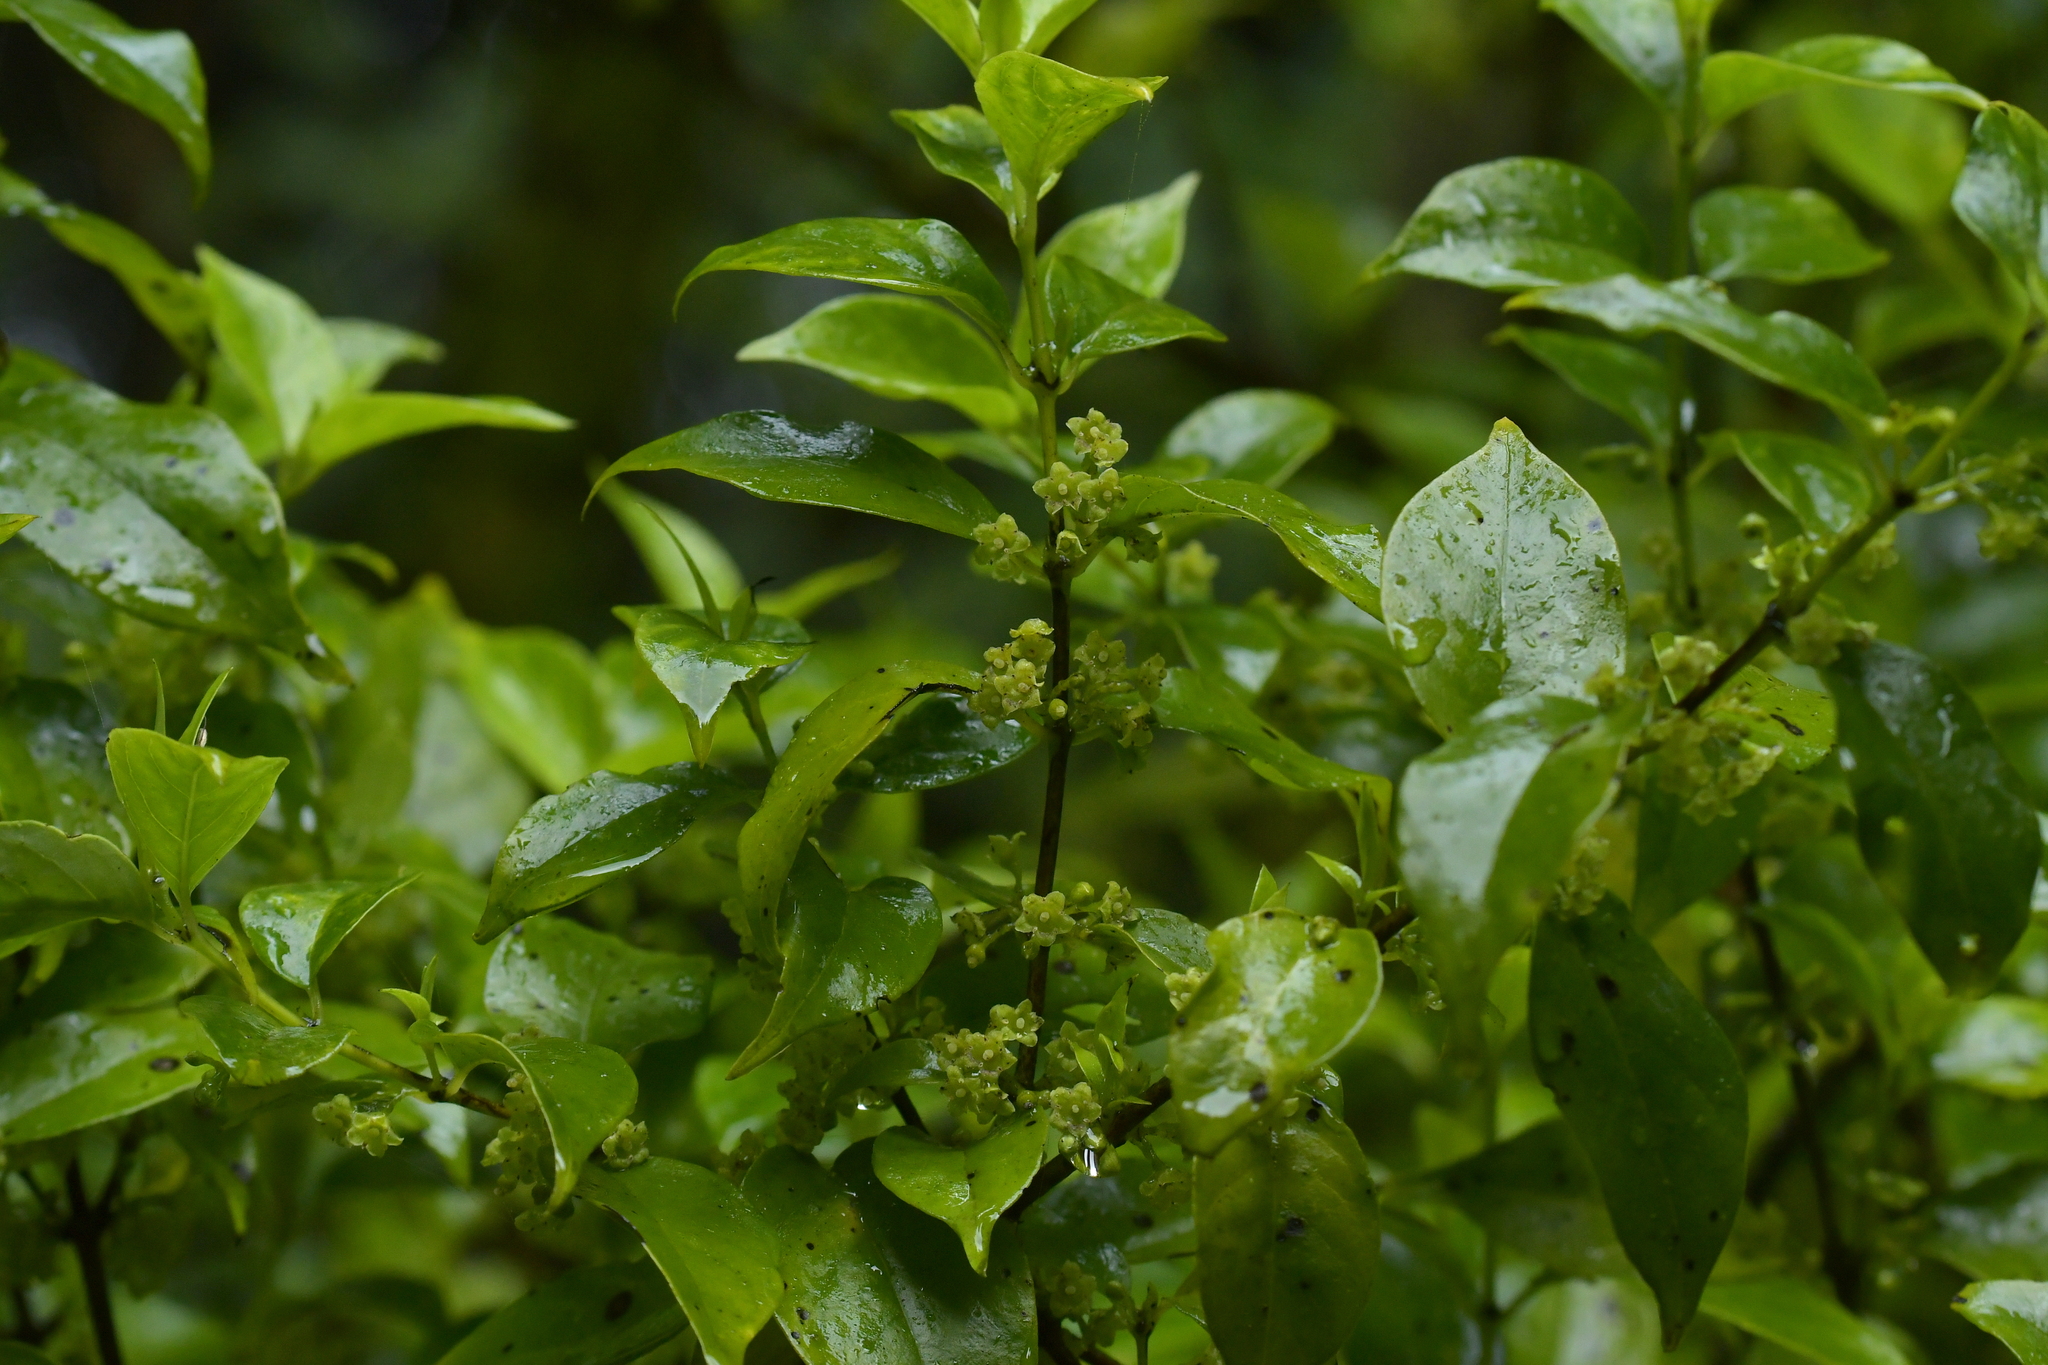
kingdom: Plantae
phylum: Tracheophyta
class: Magnoliopsida
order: Gentianales
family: Loganiaceae
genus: Geniostoma
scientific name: Geniostoma ligustrifolium
